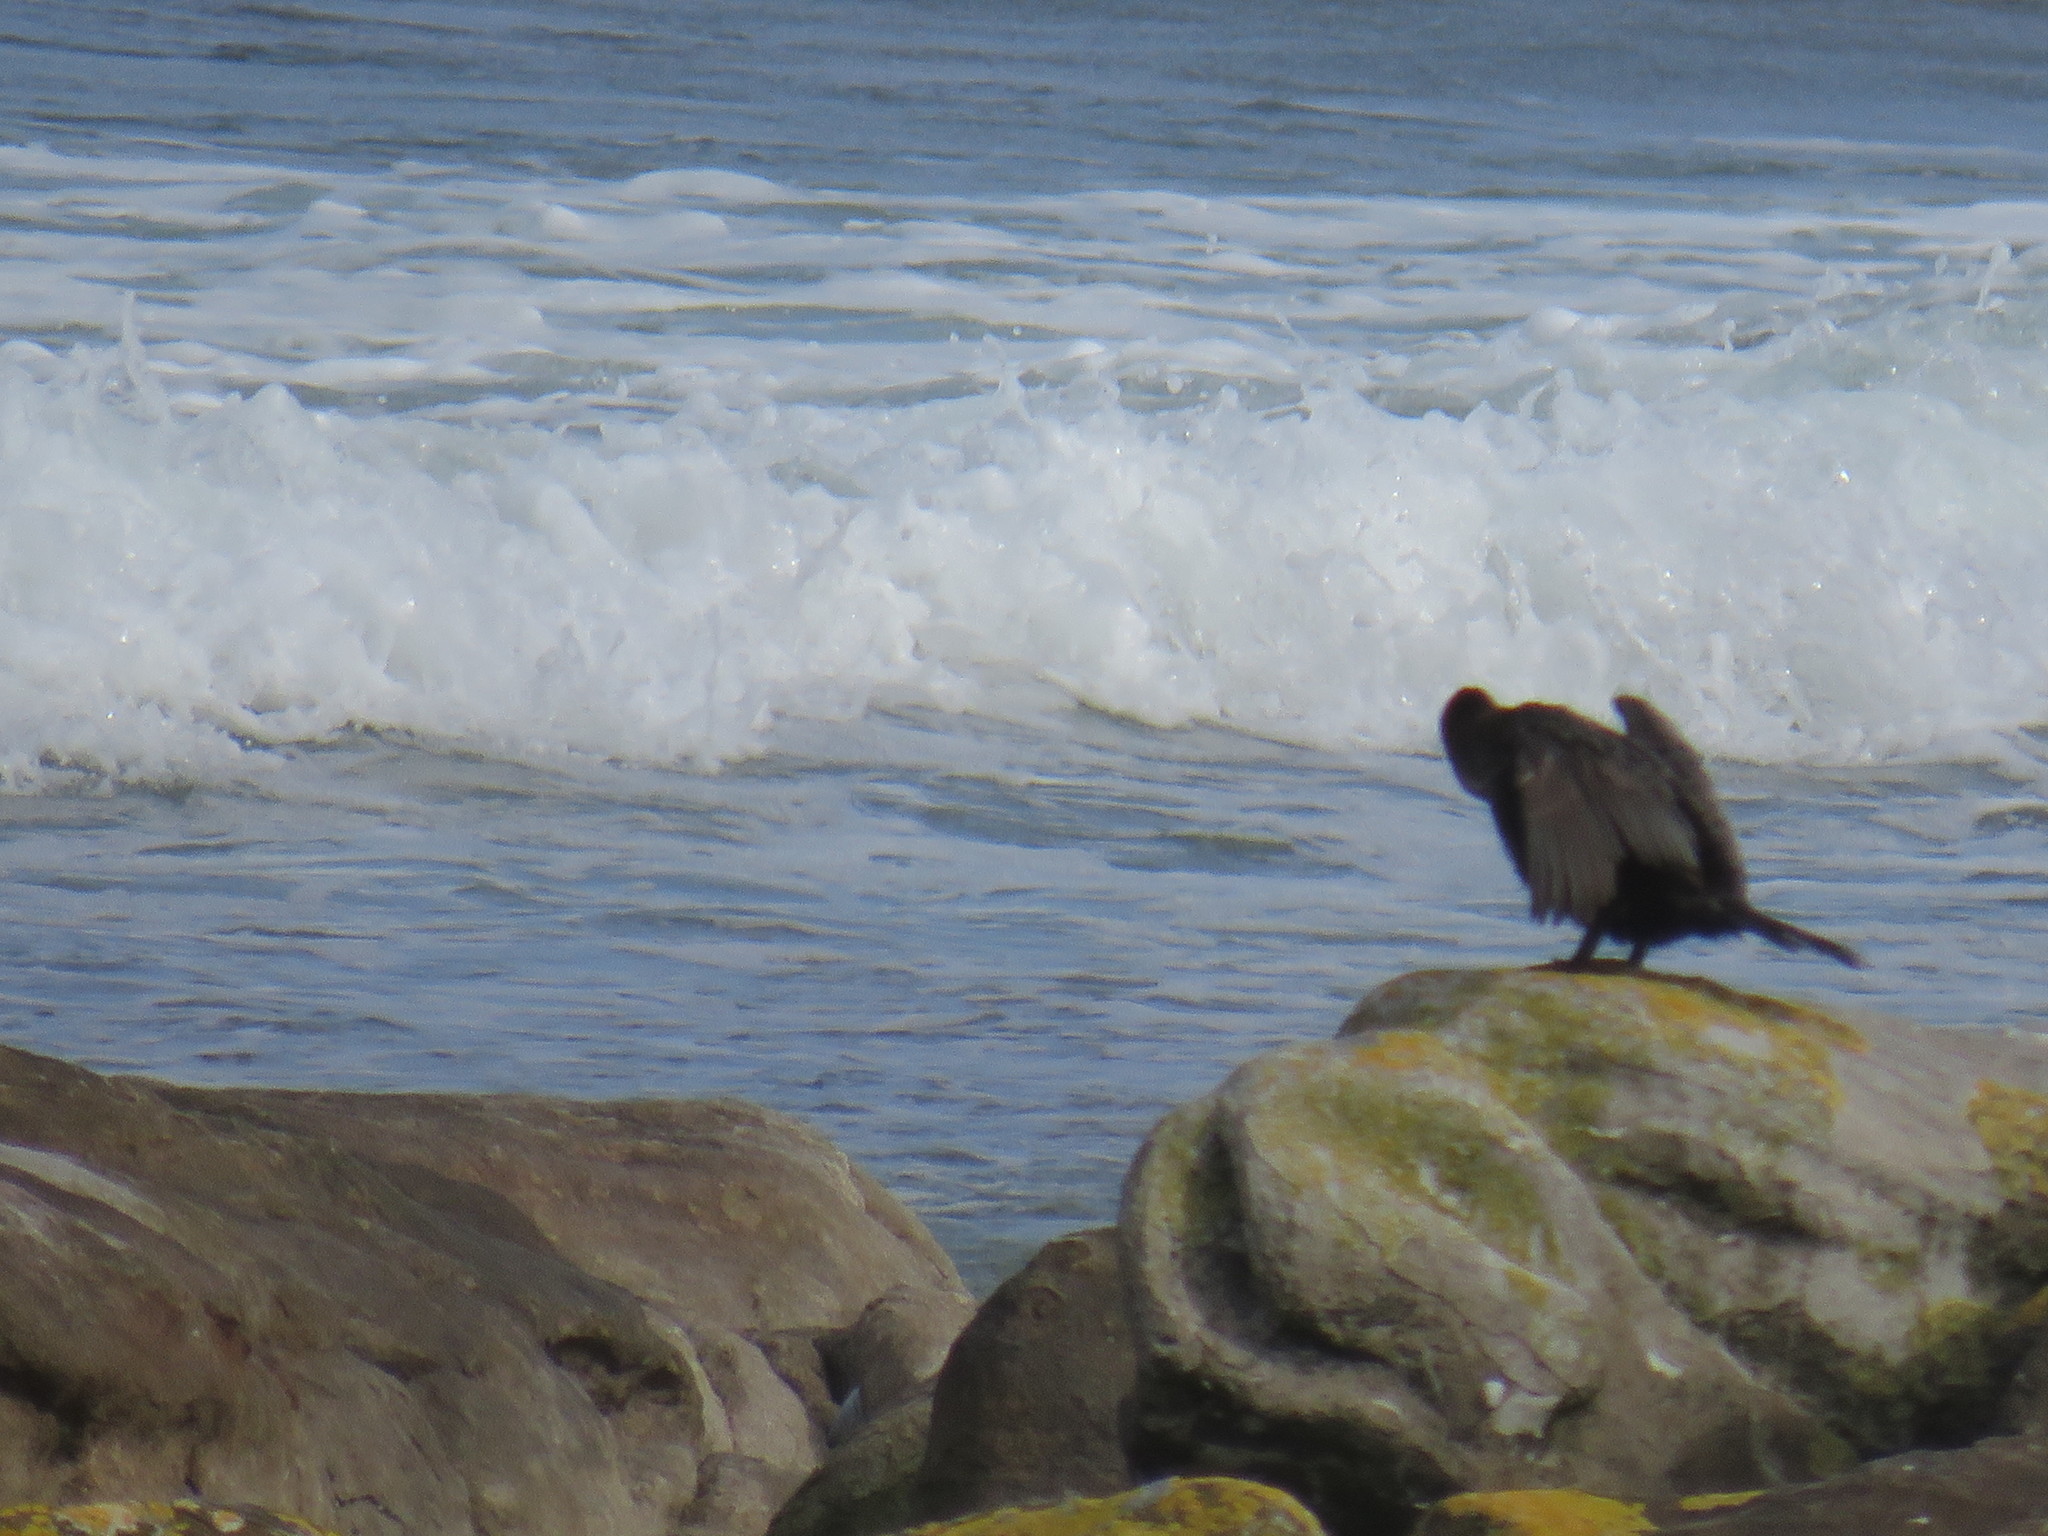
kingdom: Animalia
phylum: Chordata
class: Aves
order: Suliformes
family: Phalacrocoracidae
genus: Phalacrocorax
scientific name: Phalacrocorax capensis
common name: Cape cormorant
